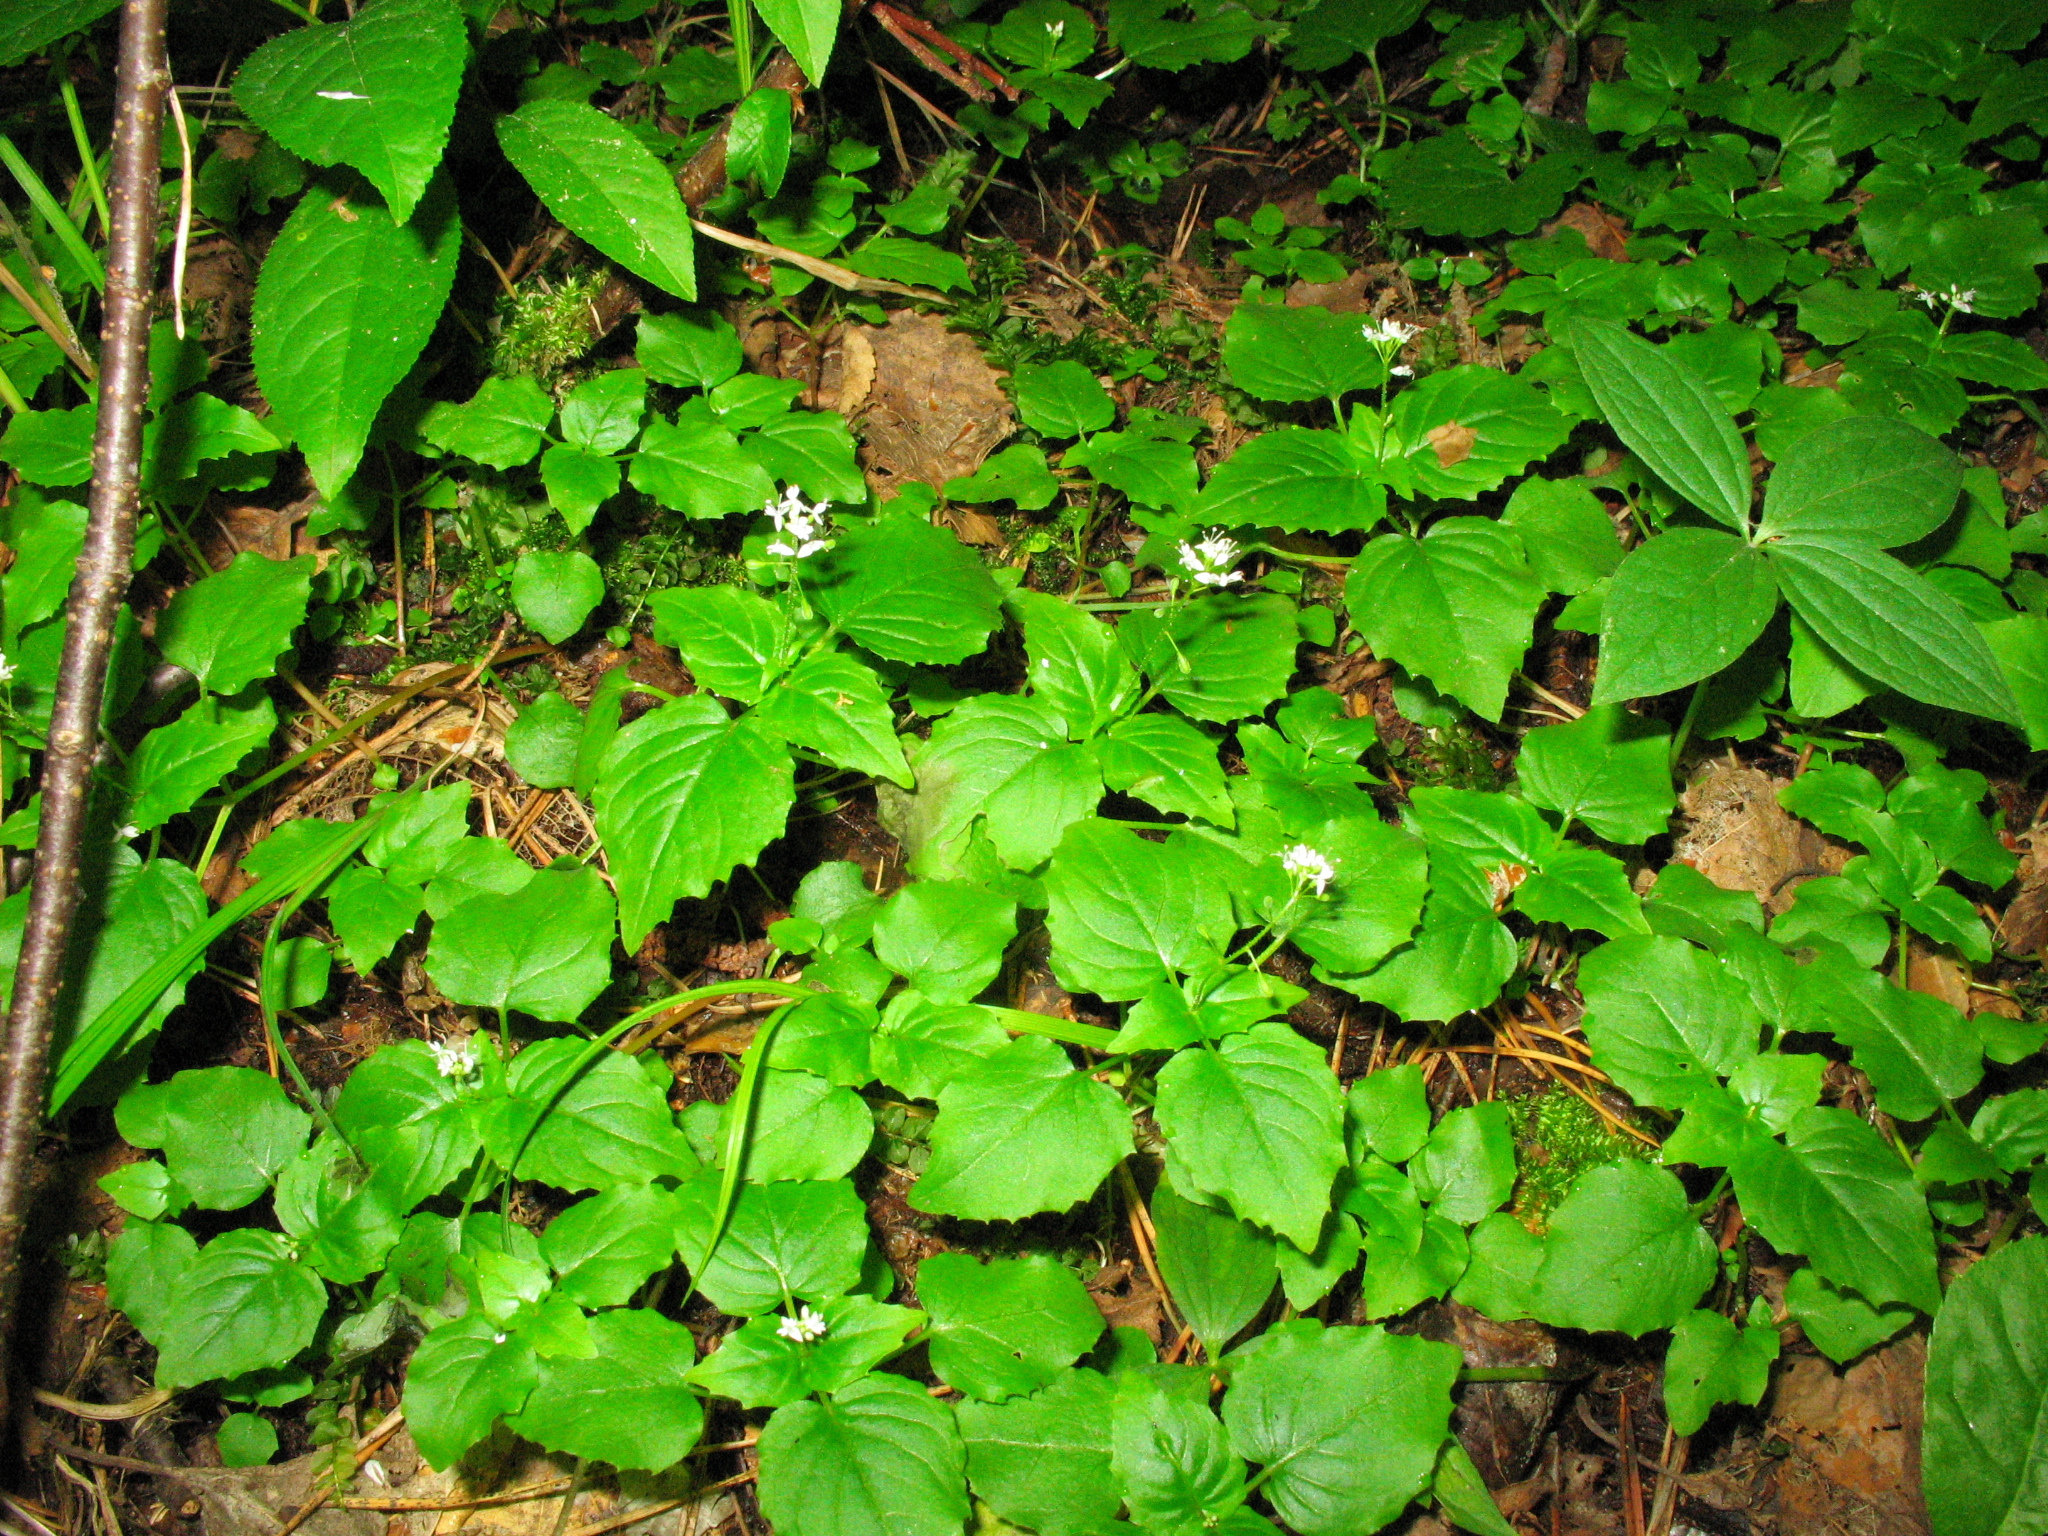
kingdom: Plantae
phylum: Tracheophyta
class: Magnoliopsida
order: Myrtales
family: Onagraceae
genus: Circaea
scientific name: Circaea alpina
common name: Alpine enchanter's-nightshade
